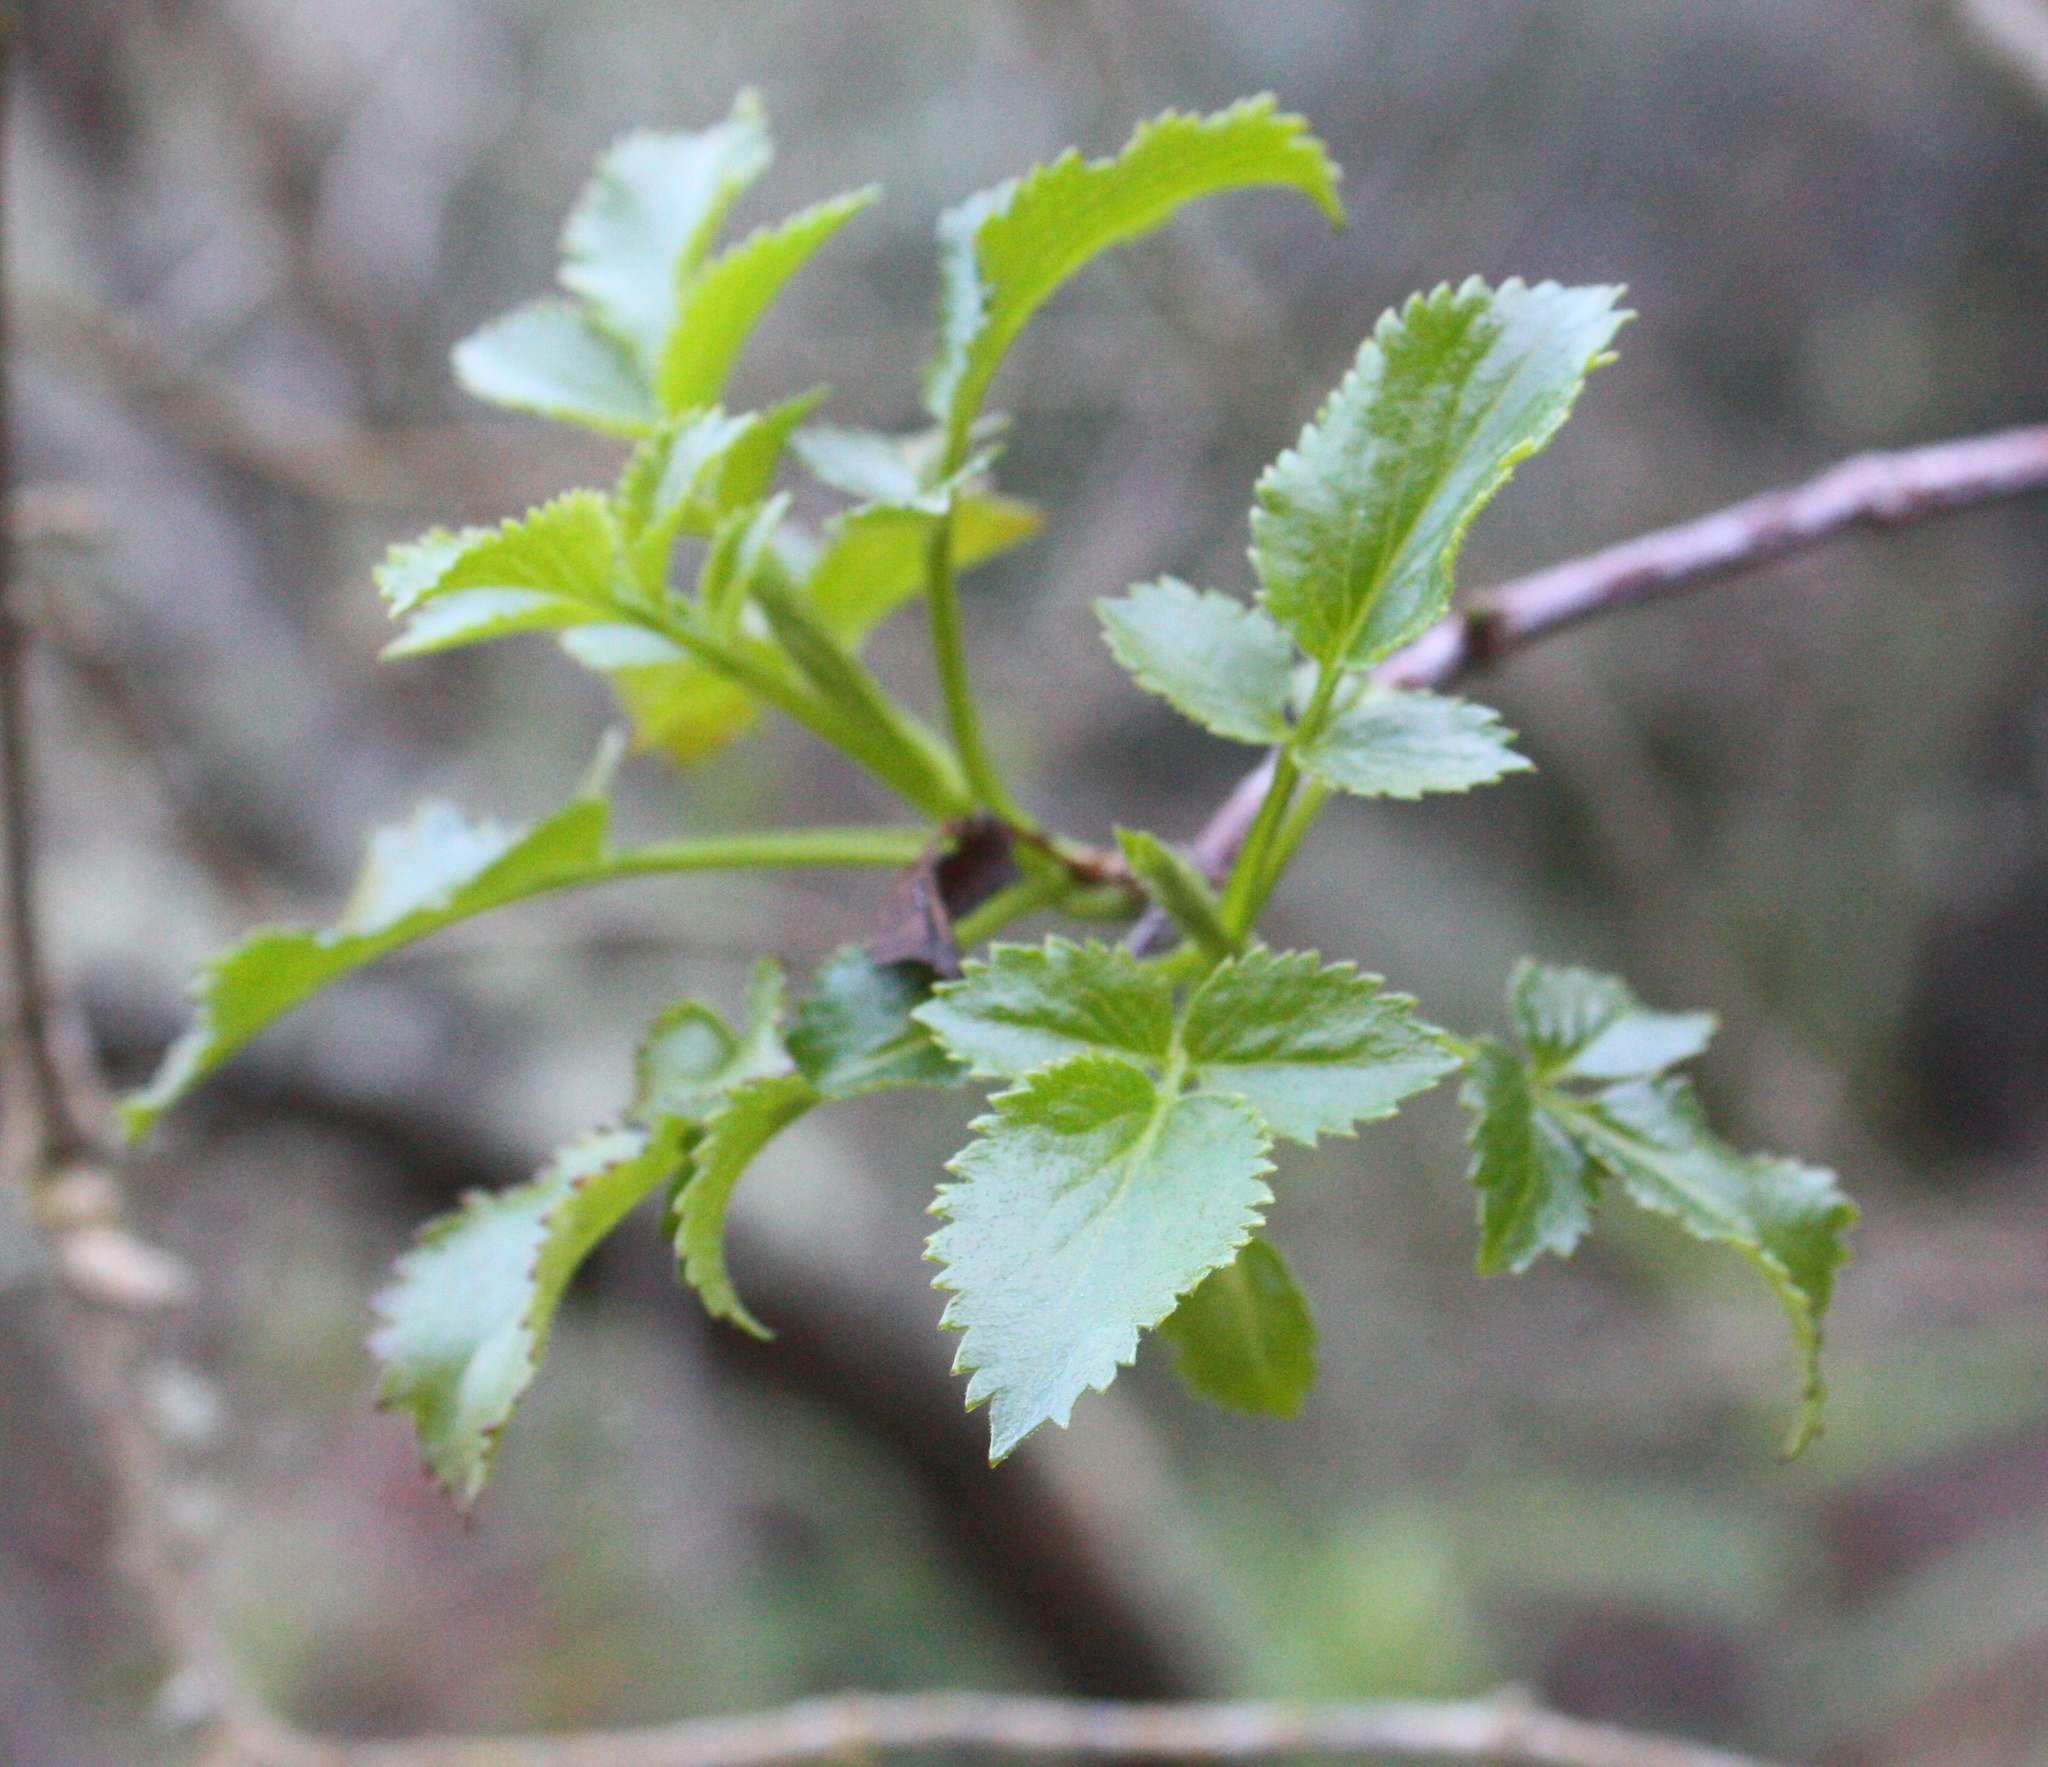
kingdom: Plantae
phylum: Tracheophyta
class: Magnoliopsida
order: Dipsacales
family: Viburnaceae
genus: Sambucus
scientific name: Sambucus cerulea
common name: Blue elder
